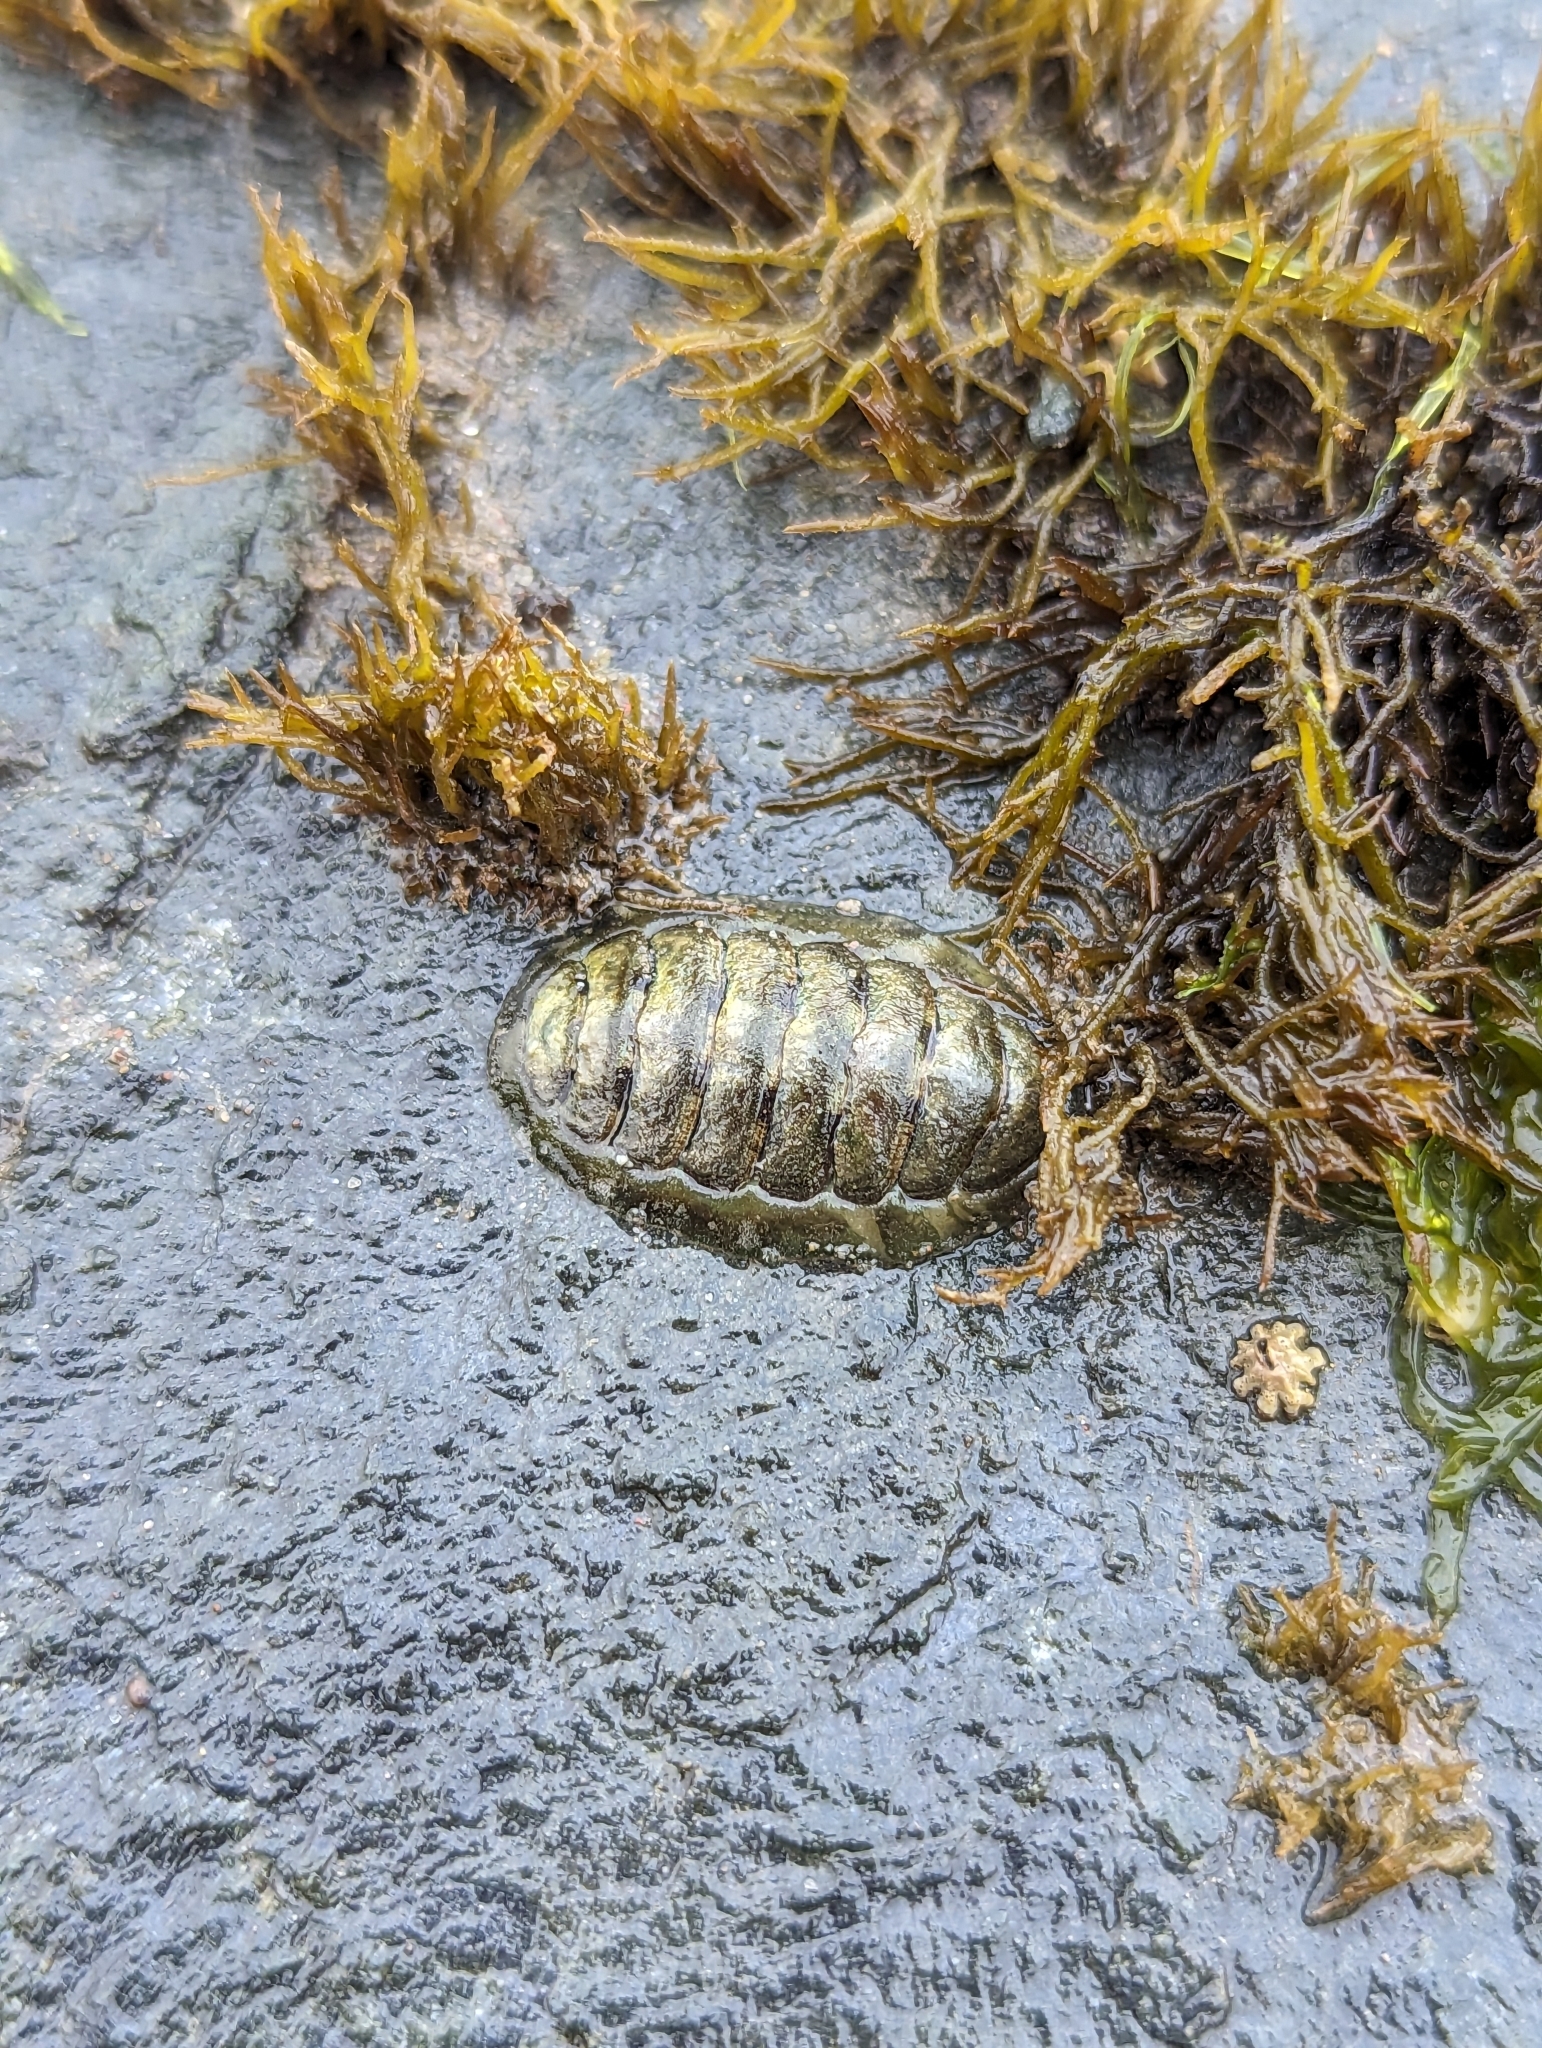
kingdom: Animalia
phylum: Mollusca
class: Polyplacophora
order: Chitonida
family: Tonicellidae
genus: Cyanoplax
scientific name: Cyanoplax hartwegii
